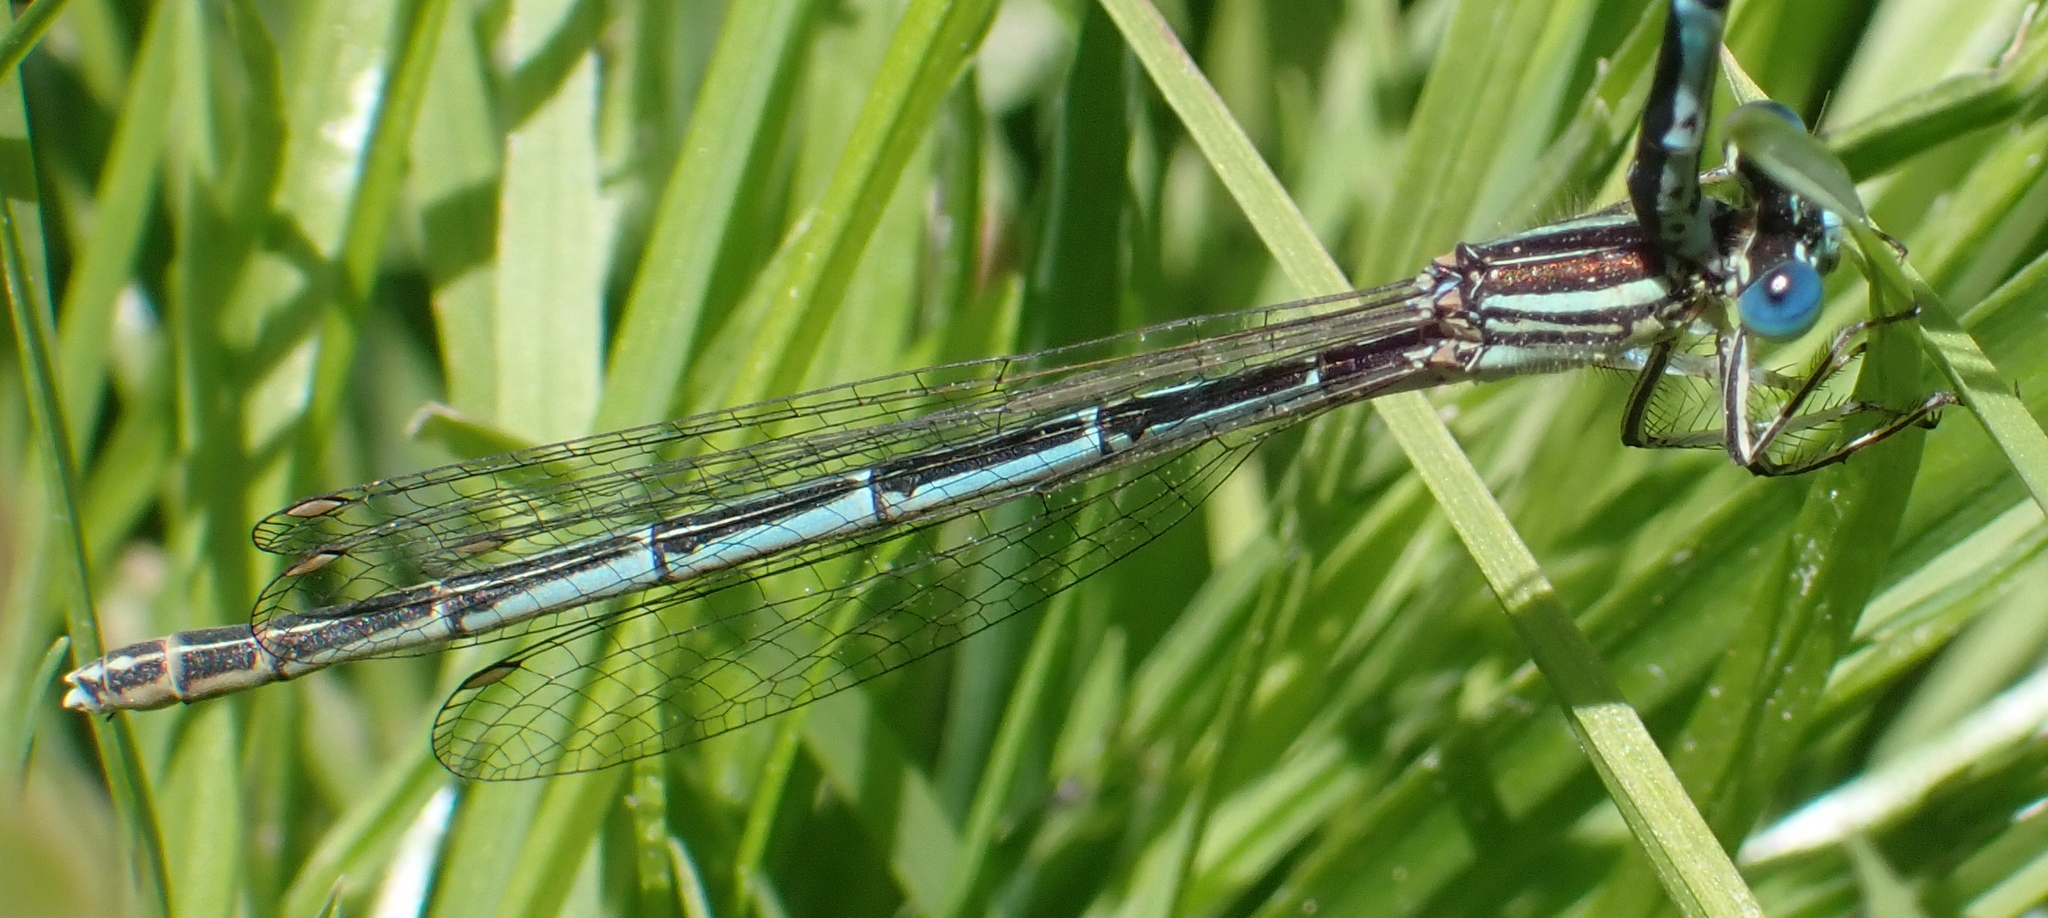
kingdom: Animalia
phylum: Arthropoda
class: Insecta
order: Odonata
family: Platycnemididae
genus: Platycnemis
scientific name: Platycnemis pennipes
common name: White-legged damselfly
